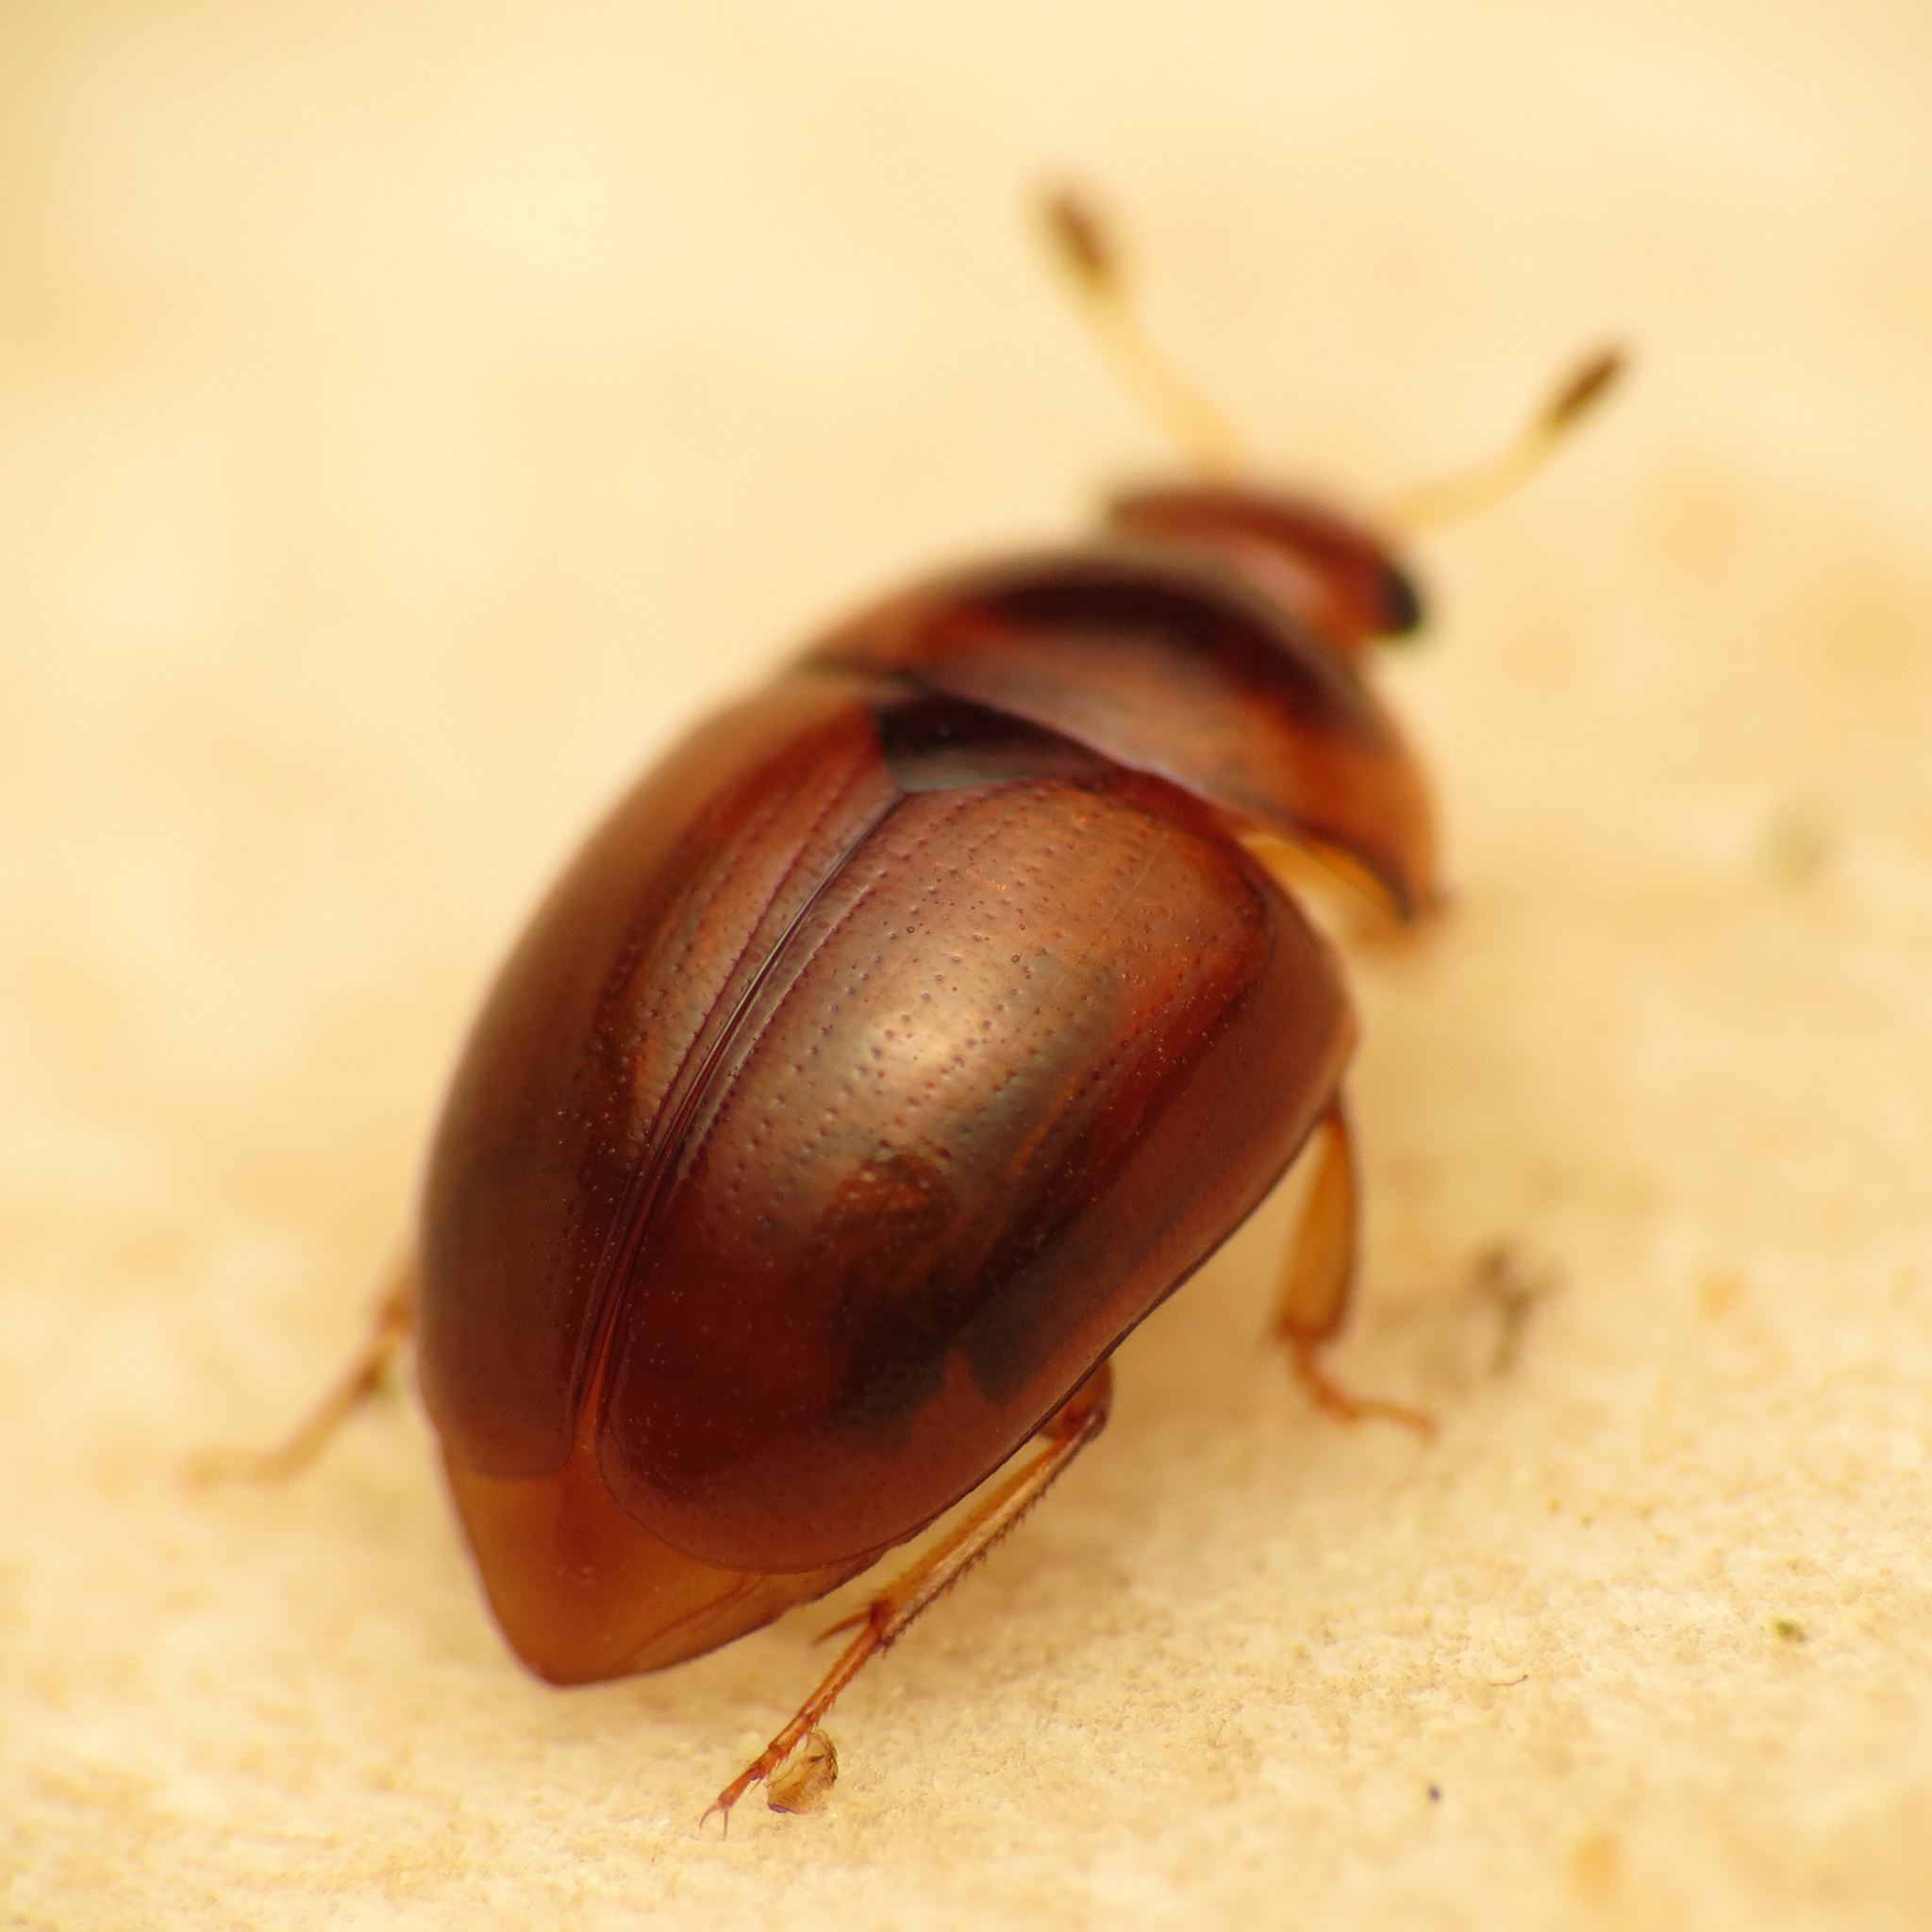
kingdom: Animalia
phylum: Arthropoda
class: Insecta
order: Coleoptera
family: Nitidulidae
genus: Pallodes
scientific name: Pallodes pallidus
